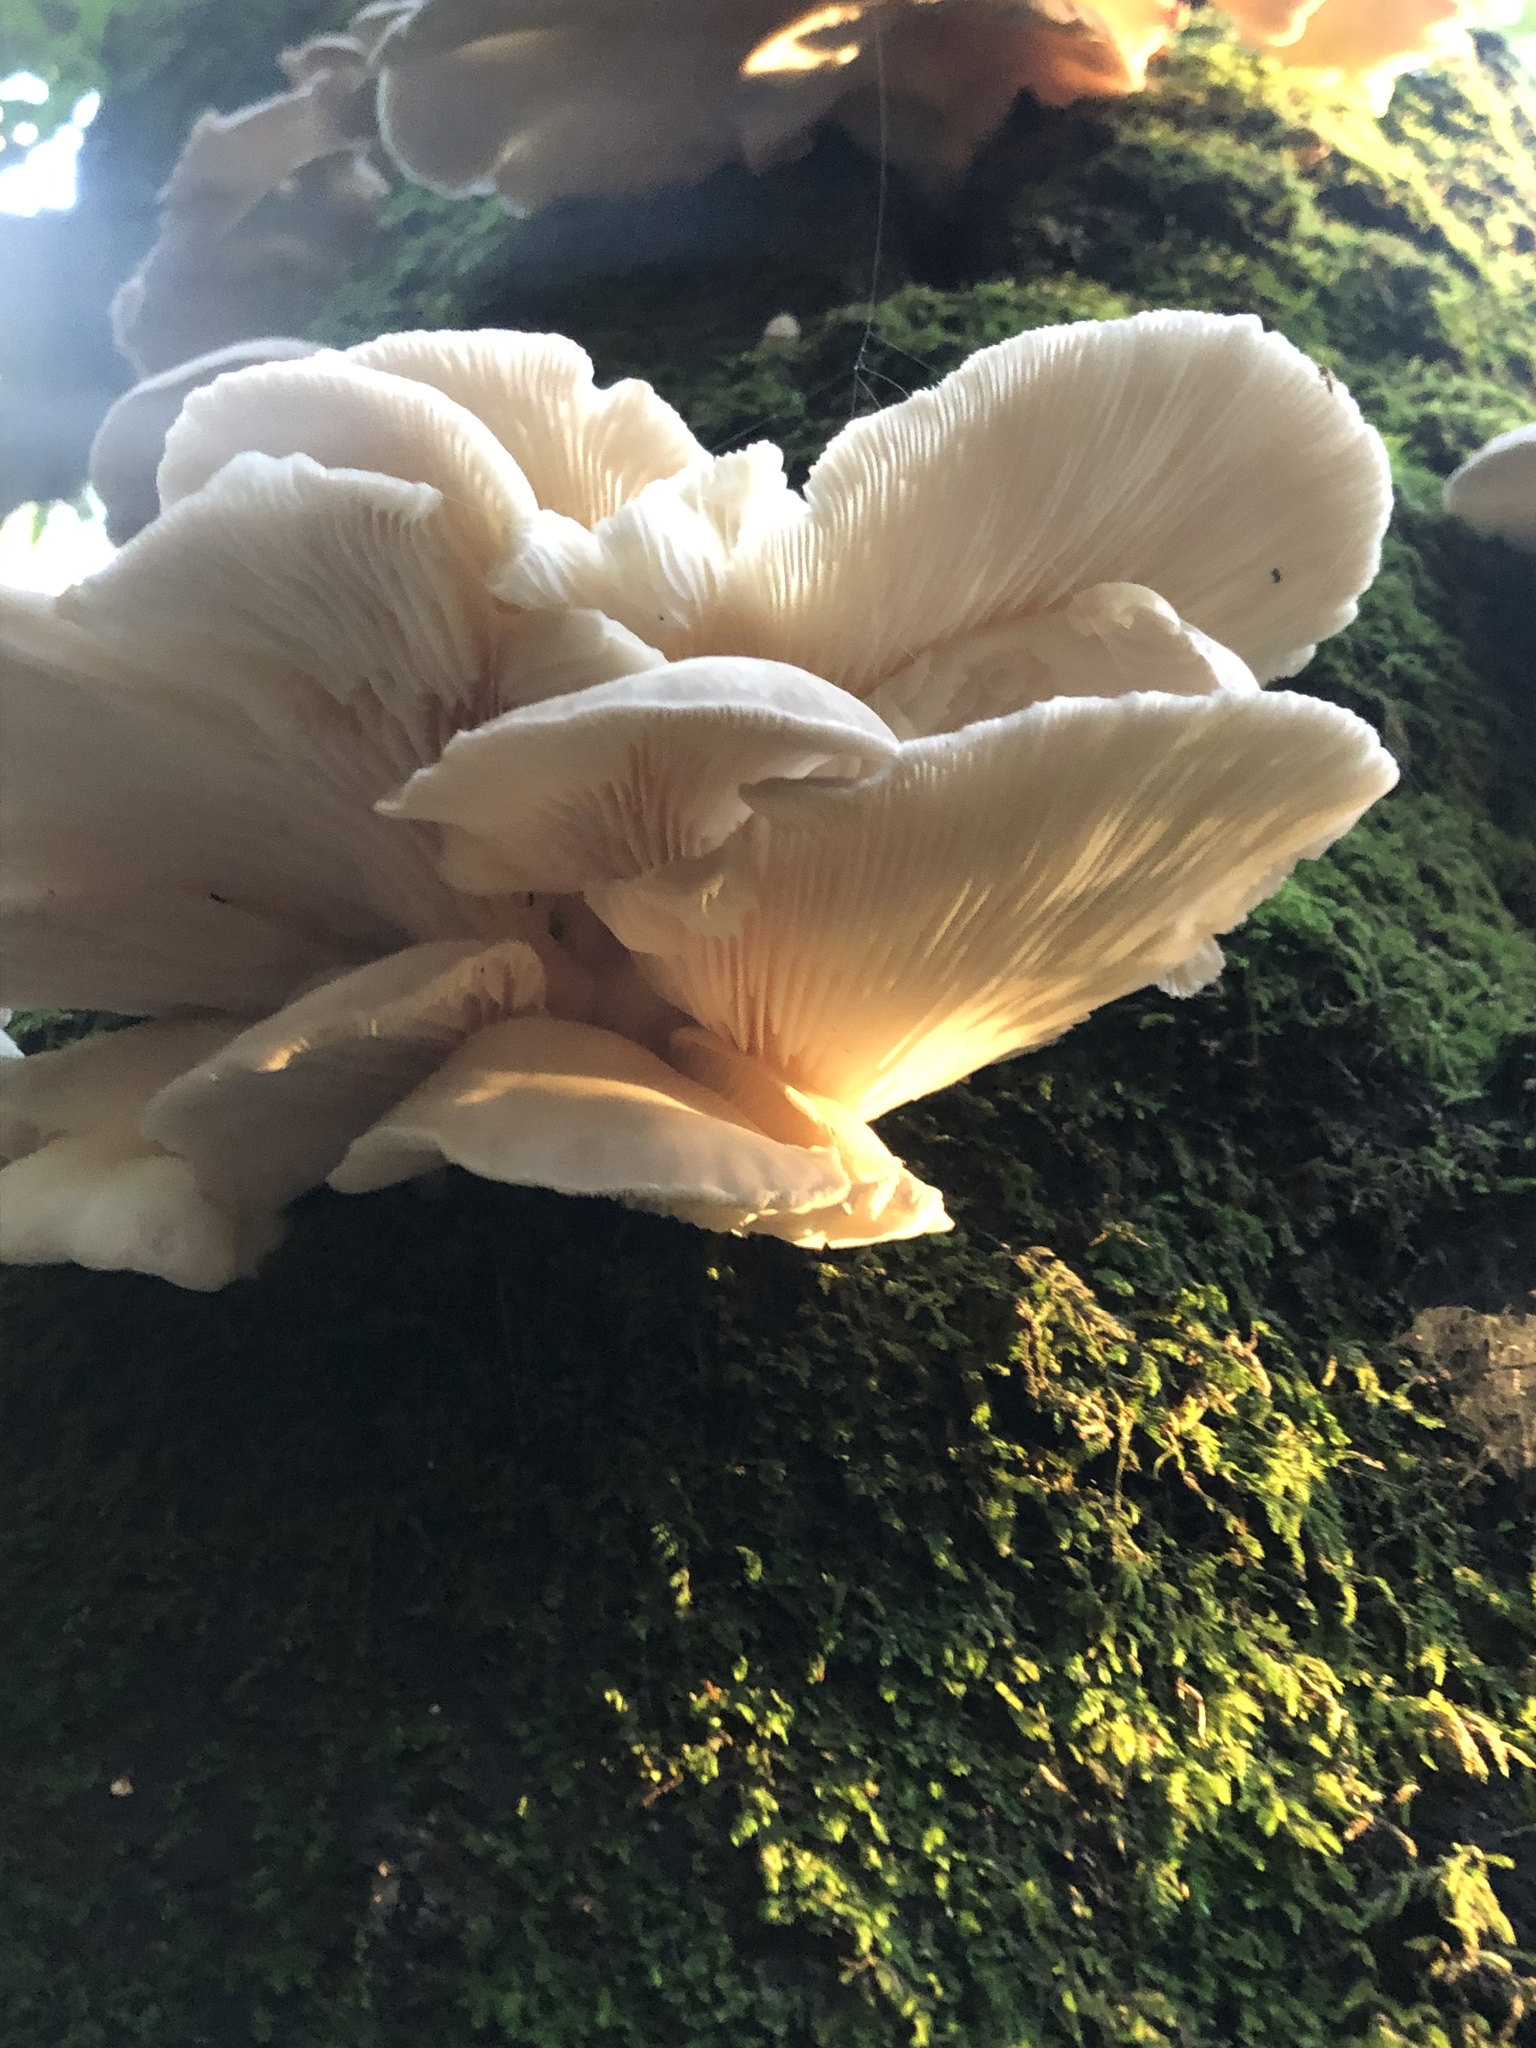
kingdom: Fungi
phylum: Basidiomycota
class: Agaricomycetes
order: Agaricales
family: Pleurotaceae
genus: Pleurotus
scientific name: Pleurotus ostreatus
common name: Oyster mushroom
